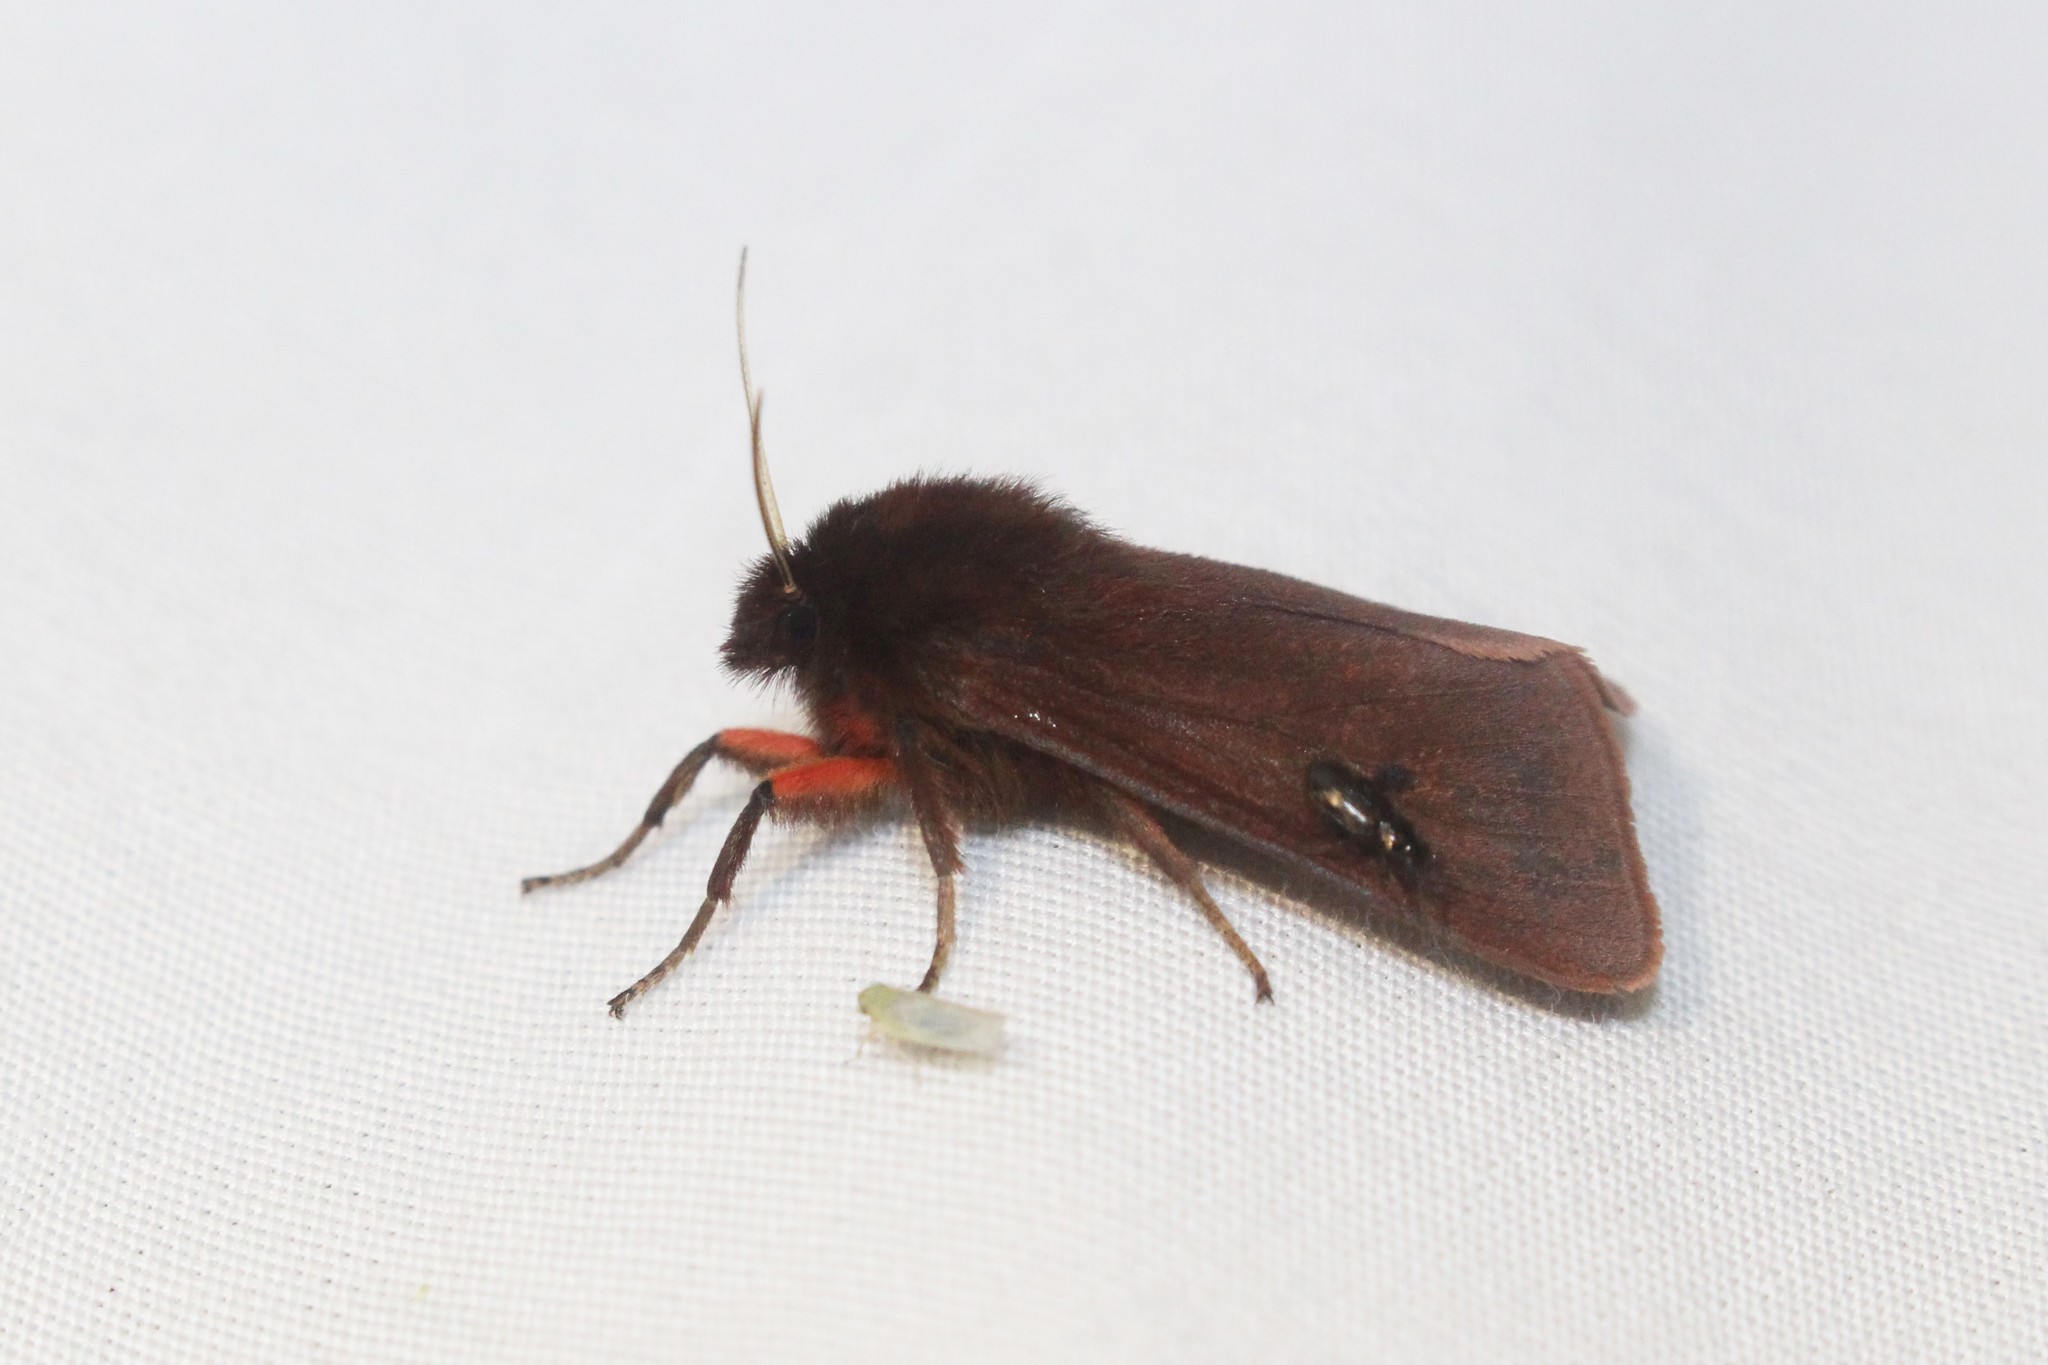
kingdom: Animalia
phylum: Arthropoda
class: Insecta
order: Lepidoptera
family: Erebidae
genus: Phragmatobia
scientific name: Phragmatobia fuliginosa
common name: Ruby tiger
